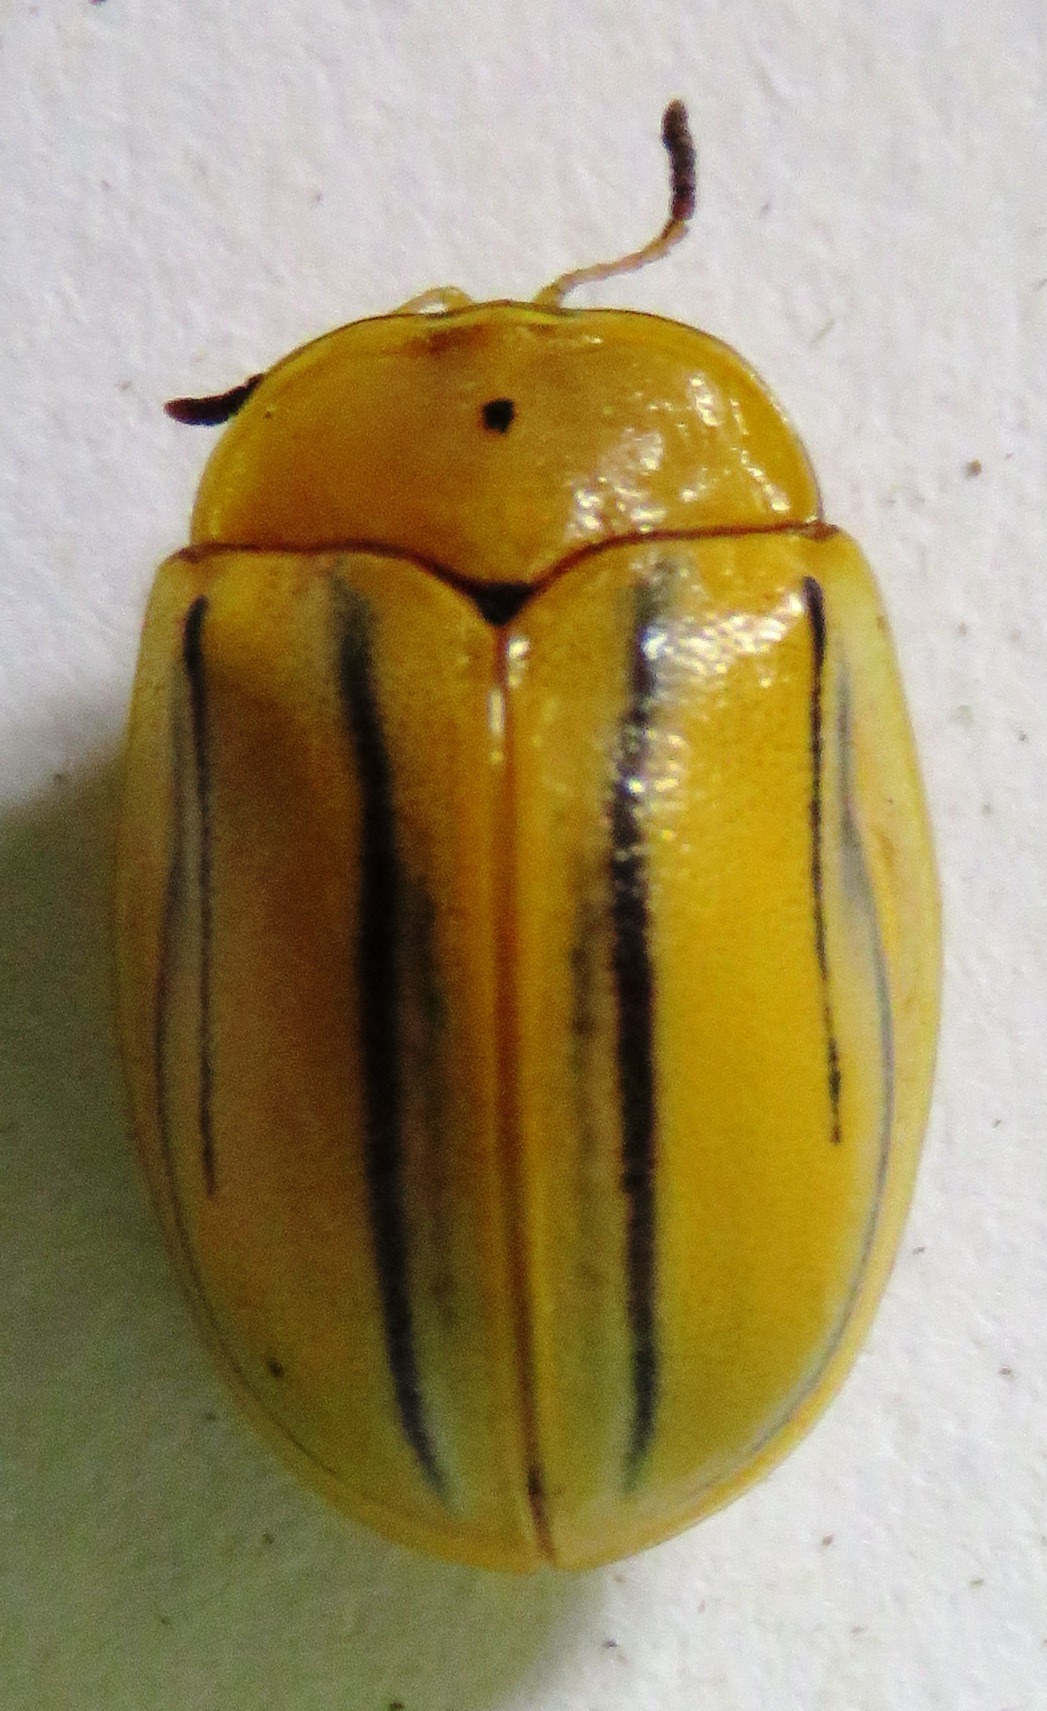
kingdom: Animalia
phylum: Arthropoda
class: Insecta
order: Coleoptera
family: Chrysomelidae
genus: Hilarocassis
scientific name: Hilarocassis exclamationis
